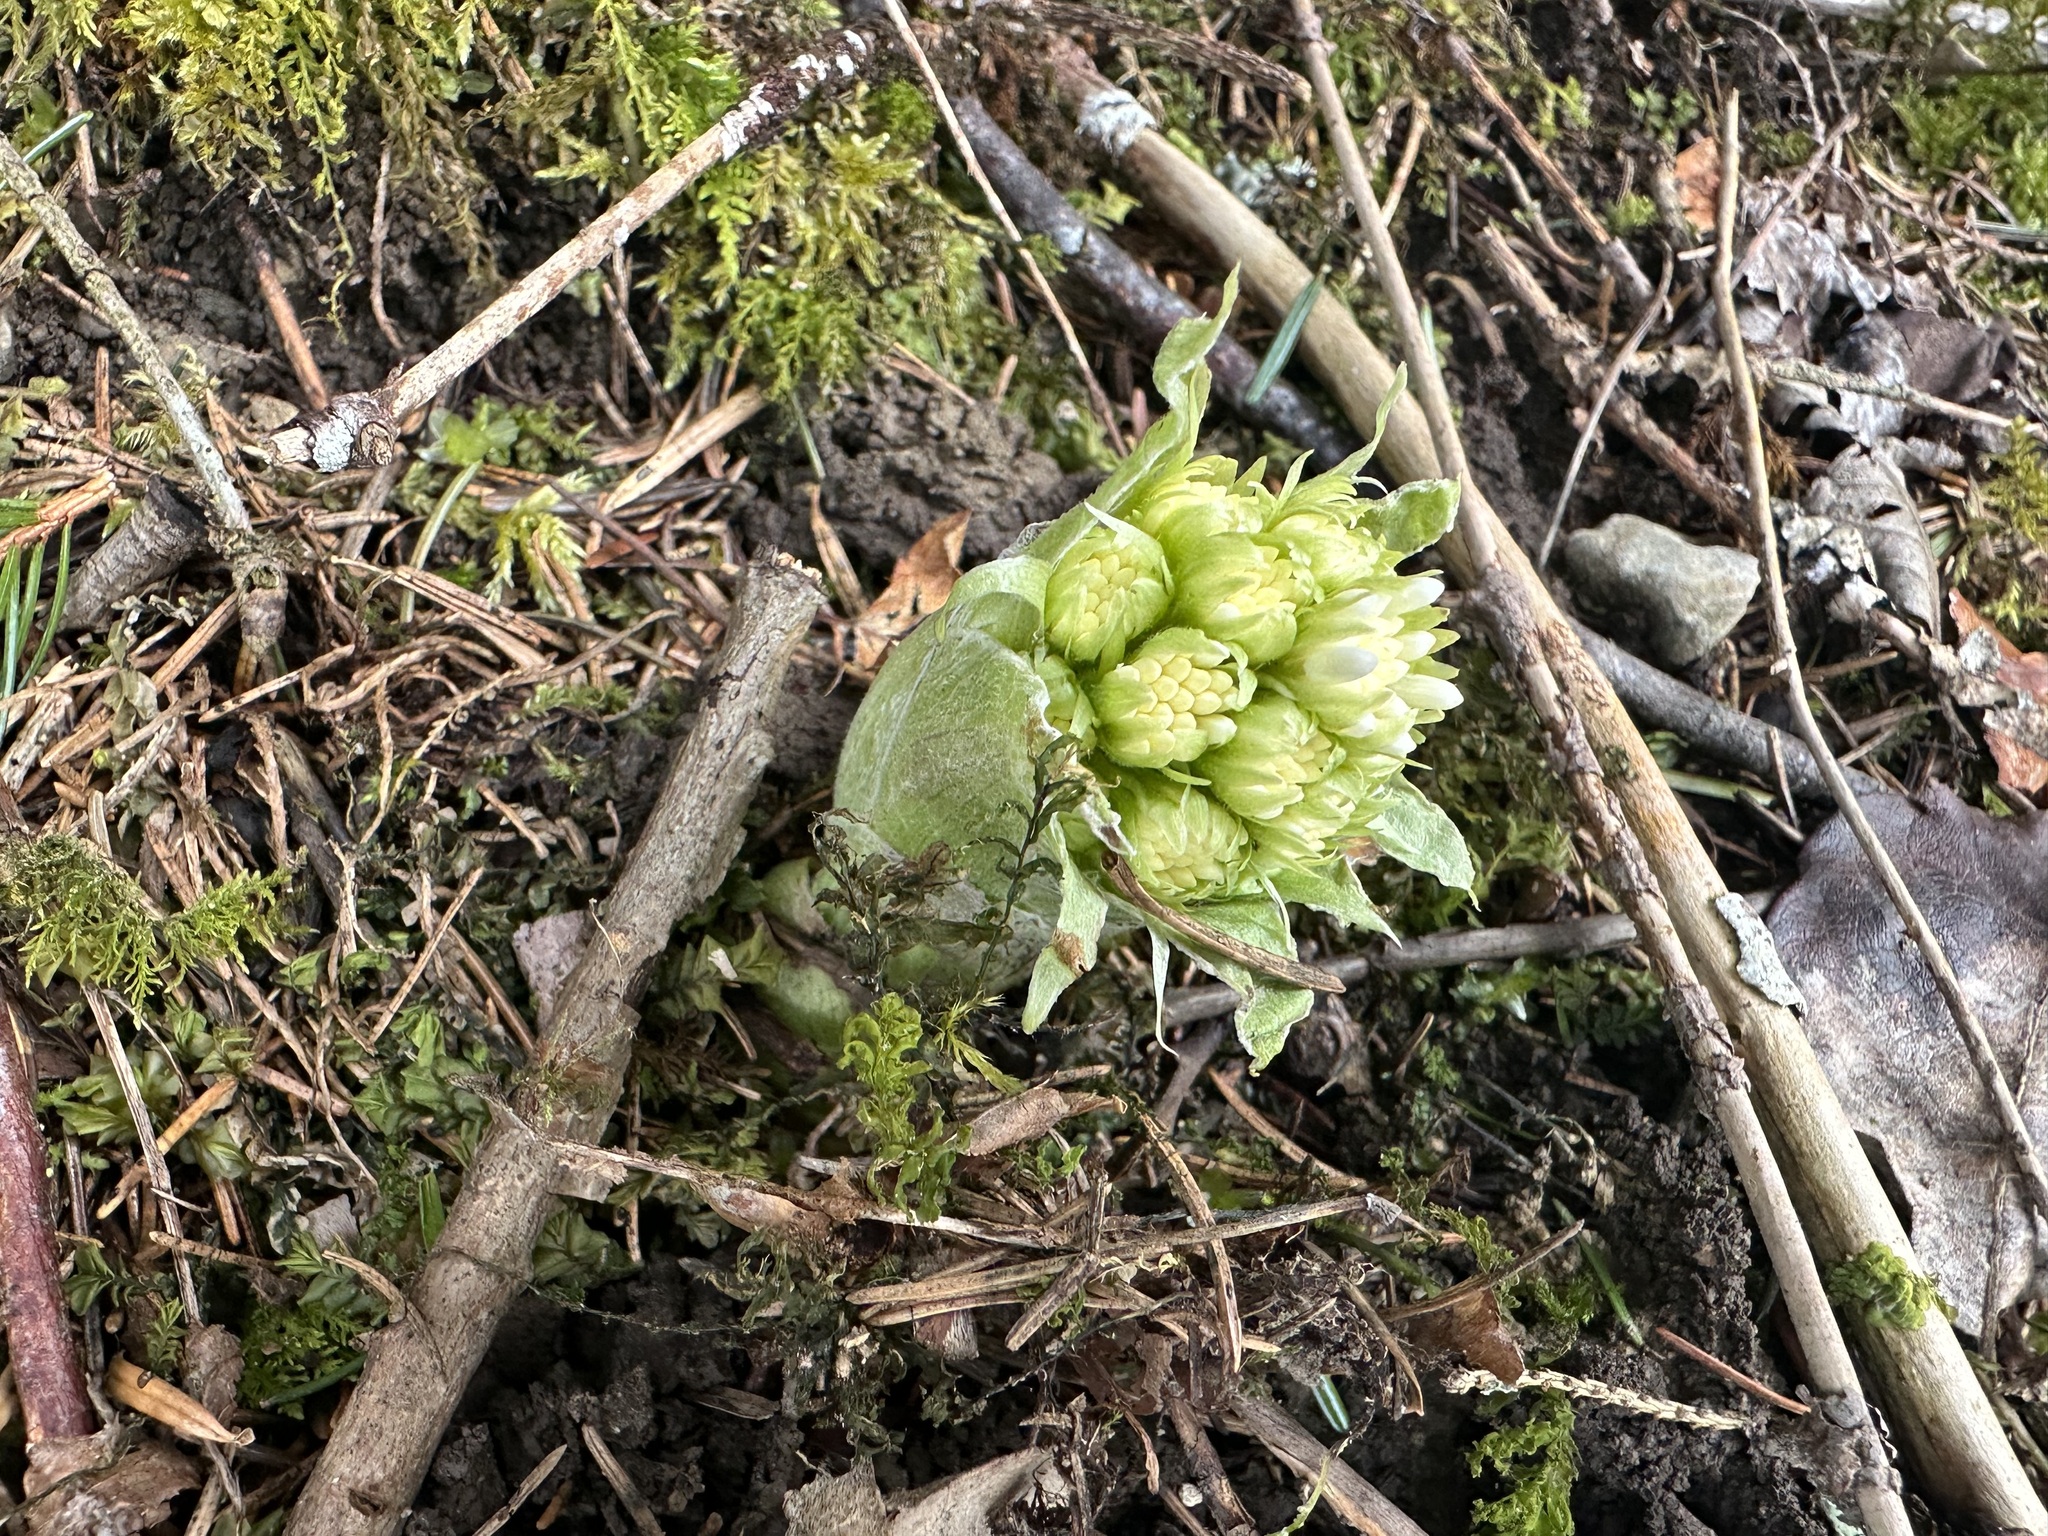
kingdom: Plantae
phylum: Tracheophyta
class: Magnoliopsida
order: Asterales
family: Asteraceae
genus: Petasites
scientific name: Petasites albus
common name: White butterbur
